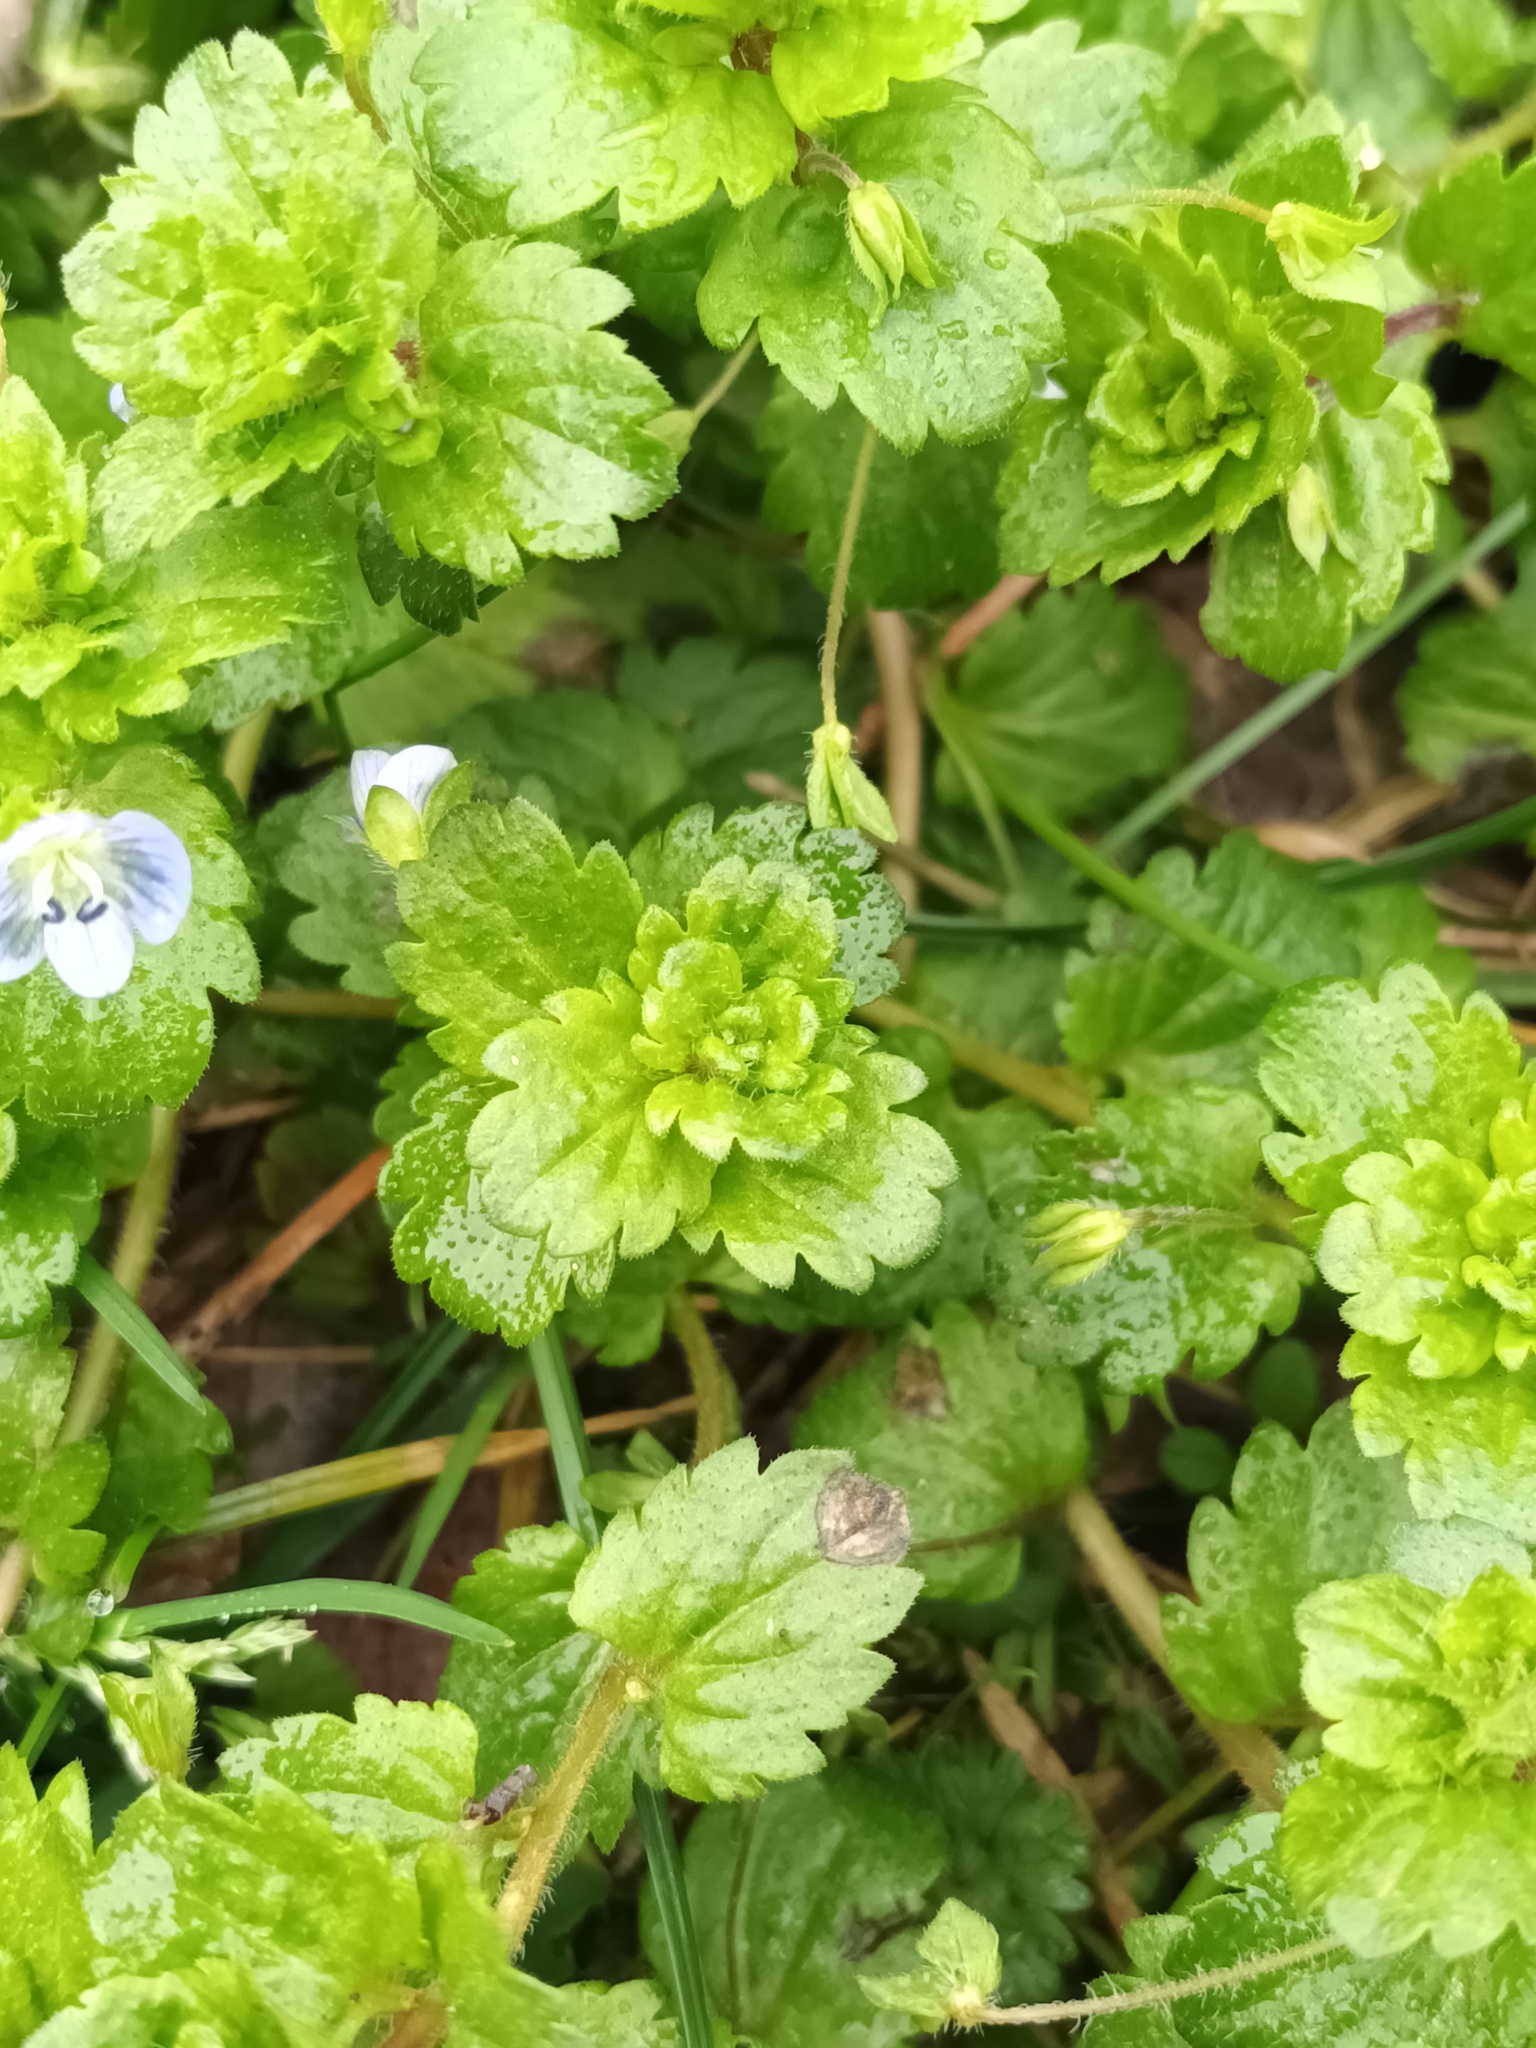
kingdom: Plantae
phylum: Tracheophyta
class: Magnoliopsida
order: Lamiales
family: Plantaginaceae
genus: Veronica
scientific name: Veronica persica
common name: Common field-speedwell
